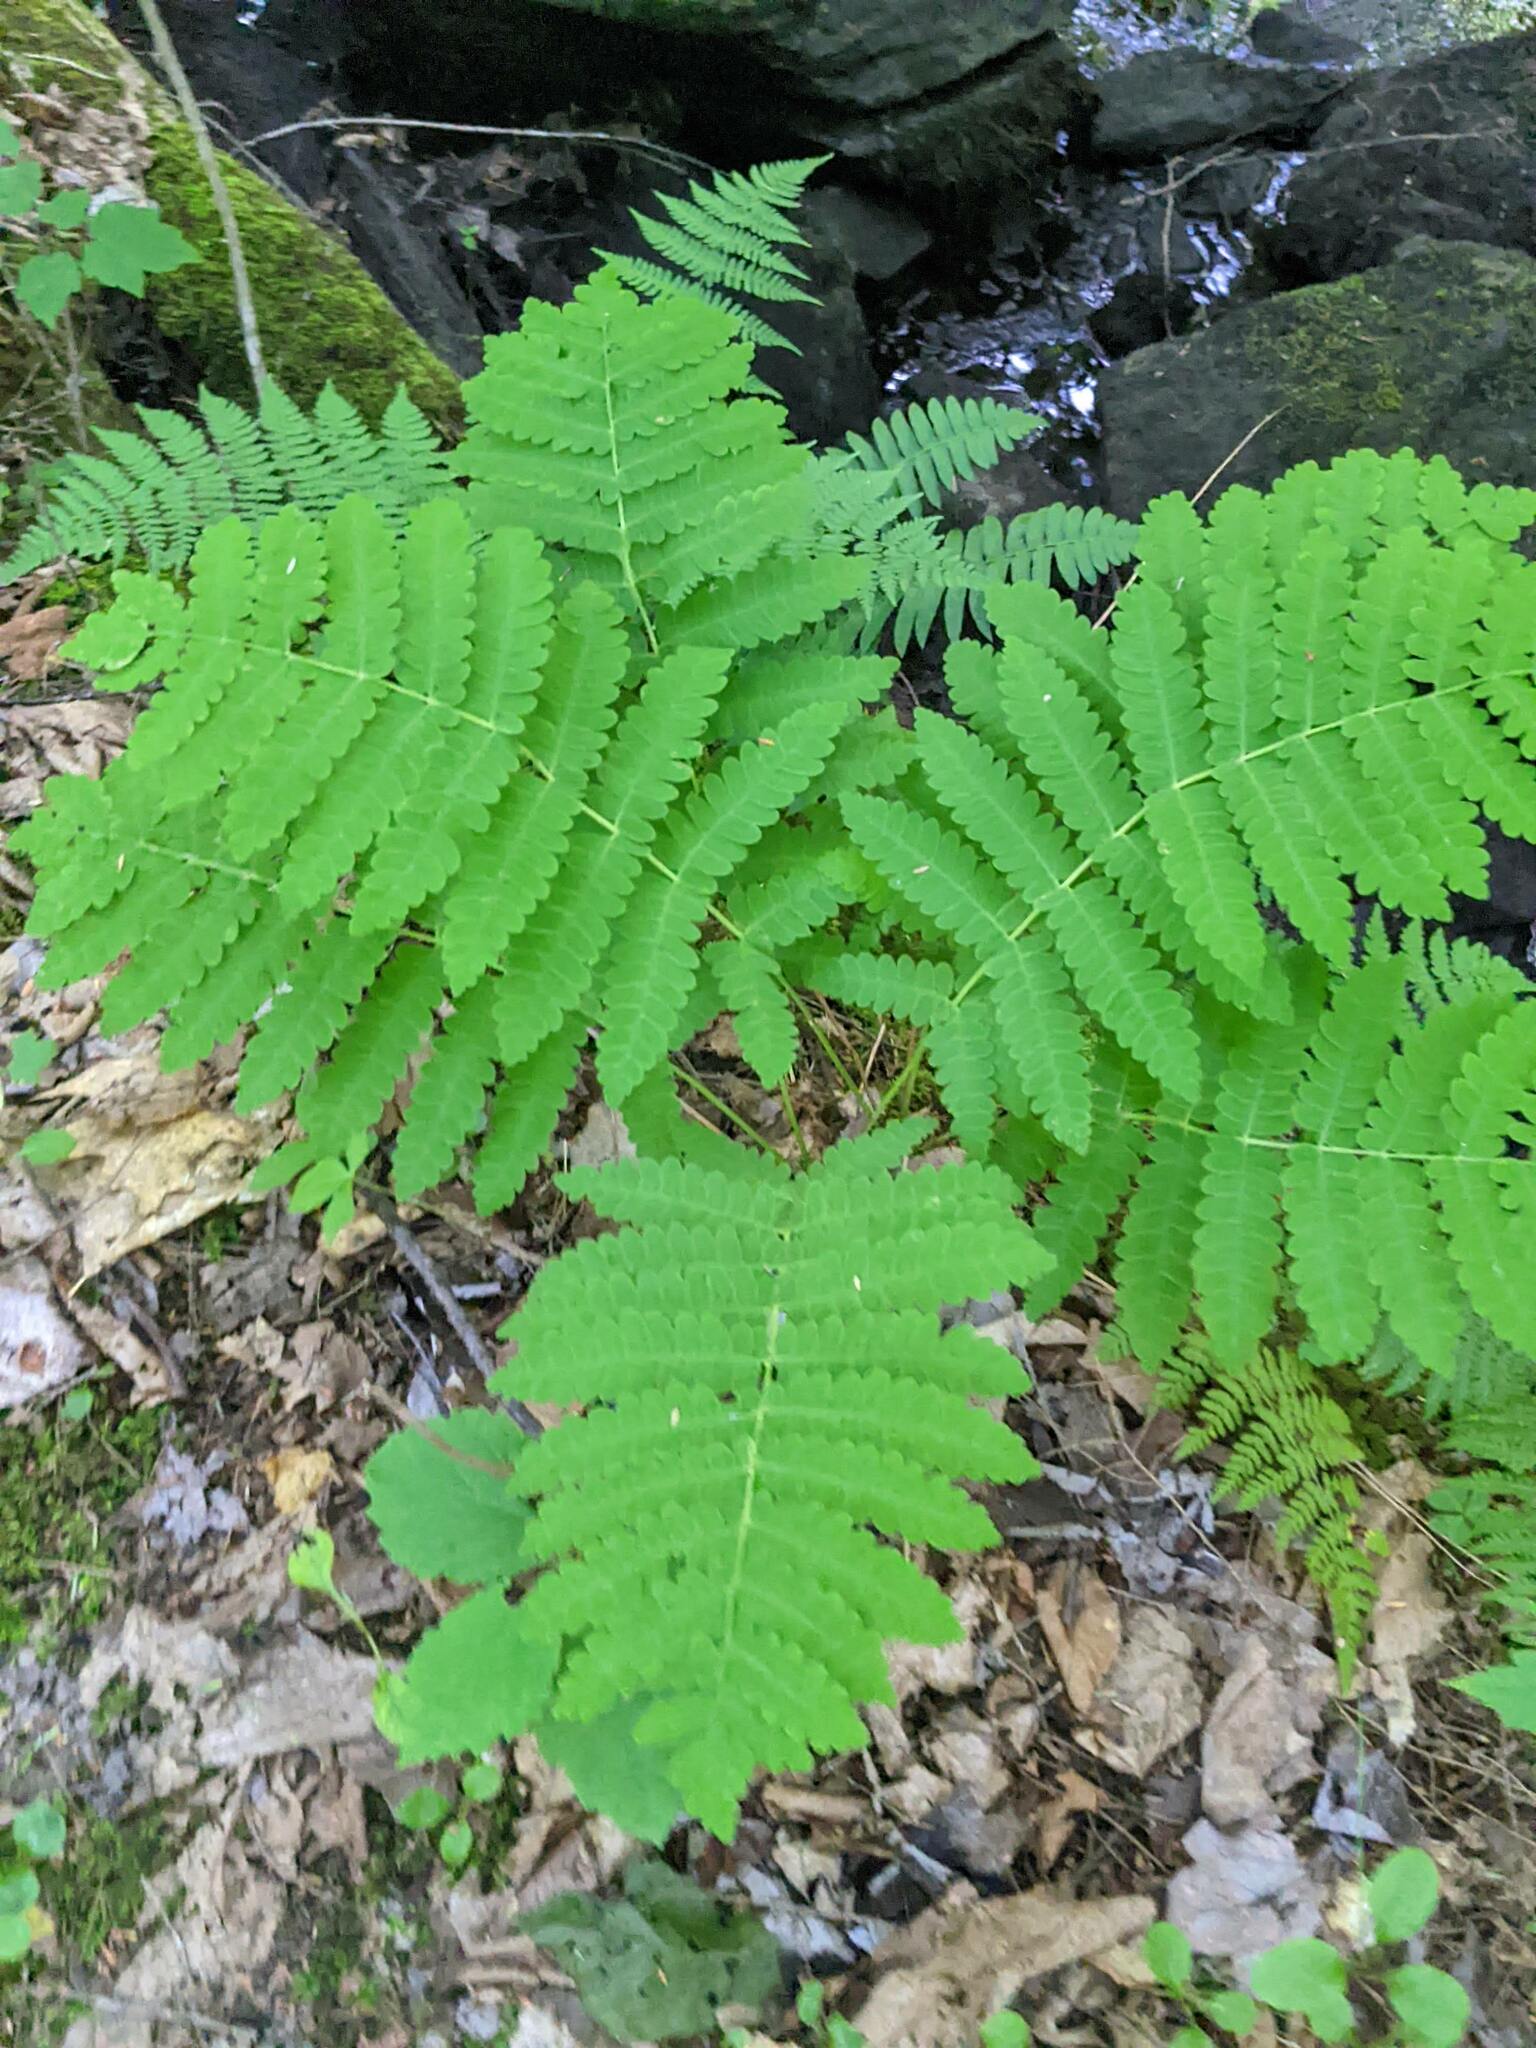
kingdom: Plantae
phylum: Tracheophyta
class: Polypodiopsida
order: Osmundales
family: Osmundaceae
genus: Claytosmunda
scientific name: Claytosmunda claytoniana
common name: Clayton's fern
